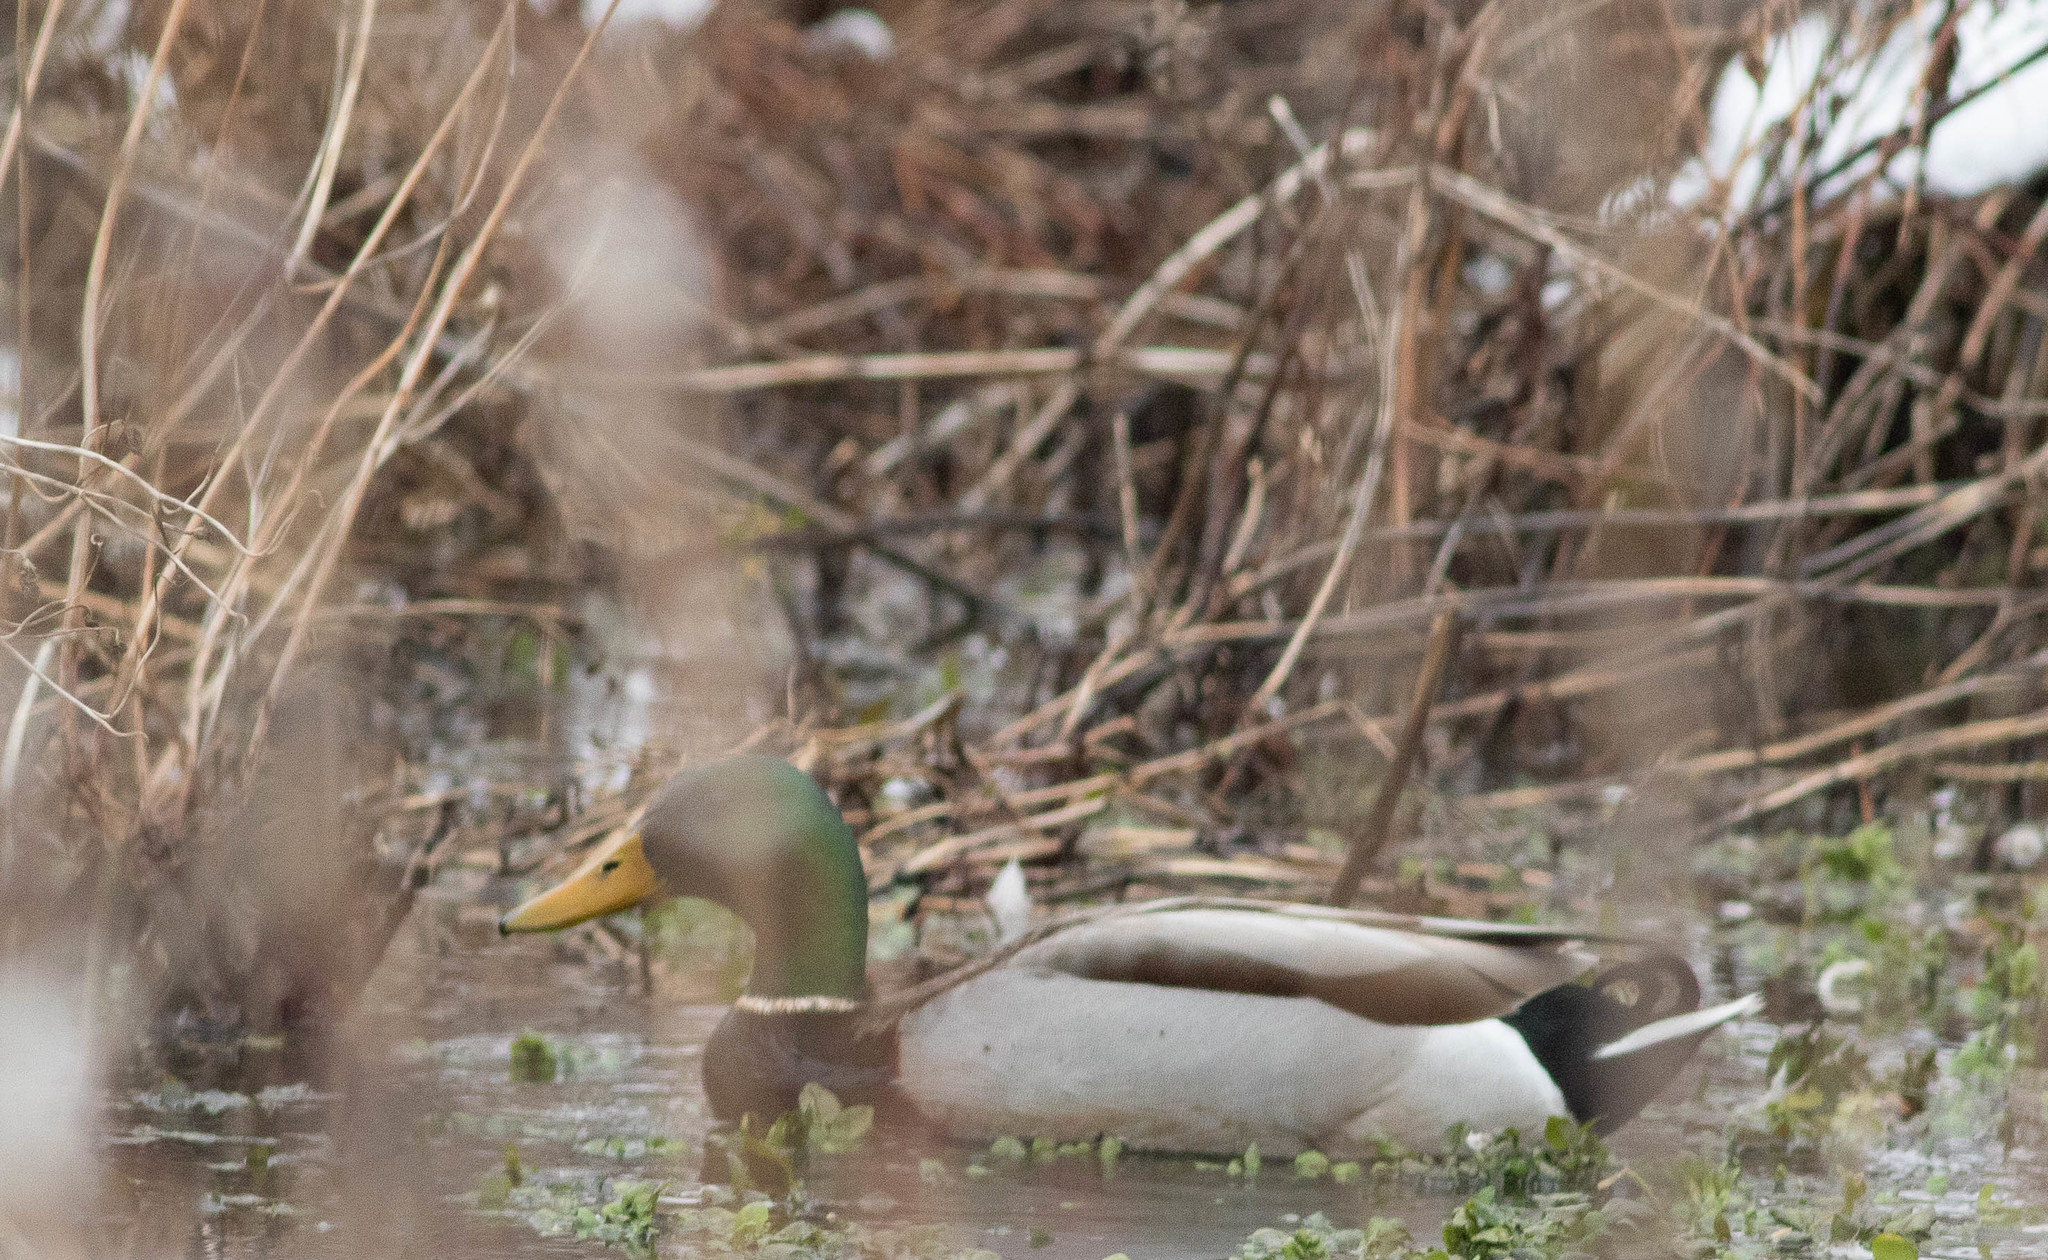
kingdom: Animalia
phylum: Chordata
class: Aves
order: Anseriformes
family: Anatidae
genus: Anas
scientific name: Anas platyrhynchos
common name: Mallard
